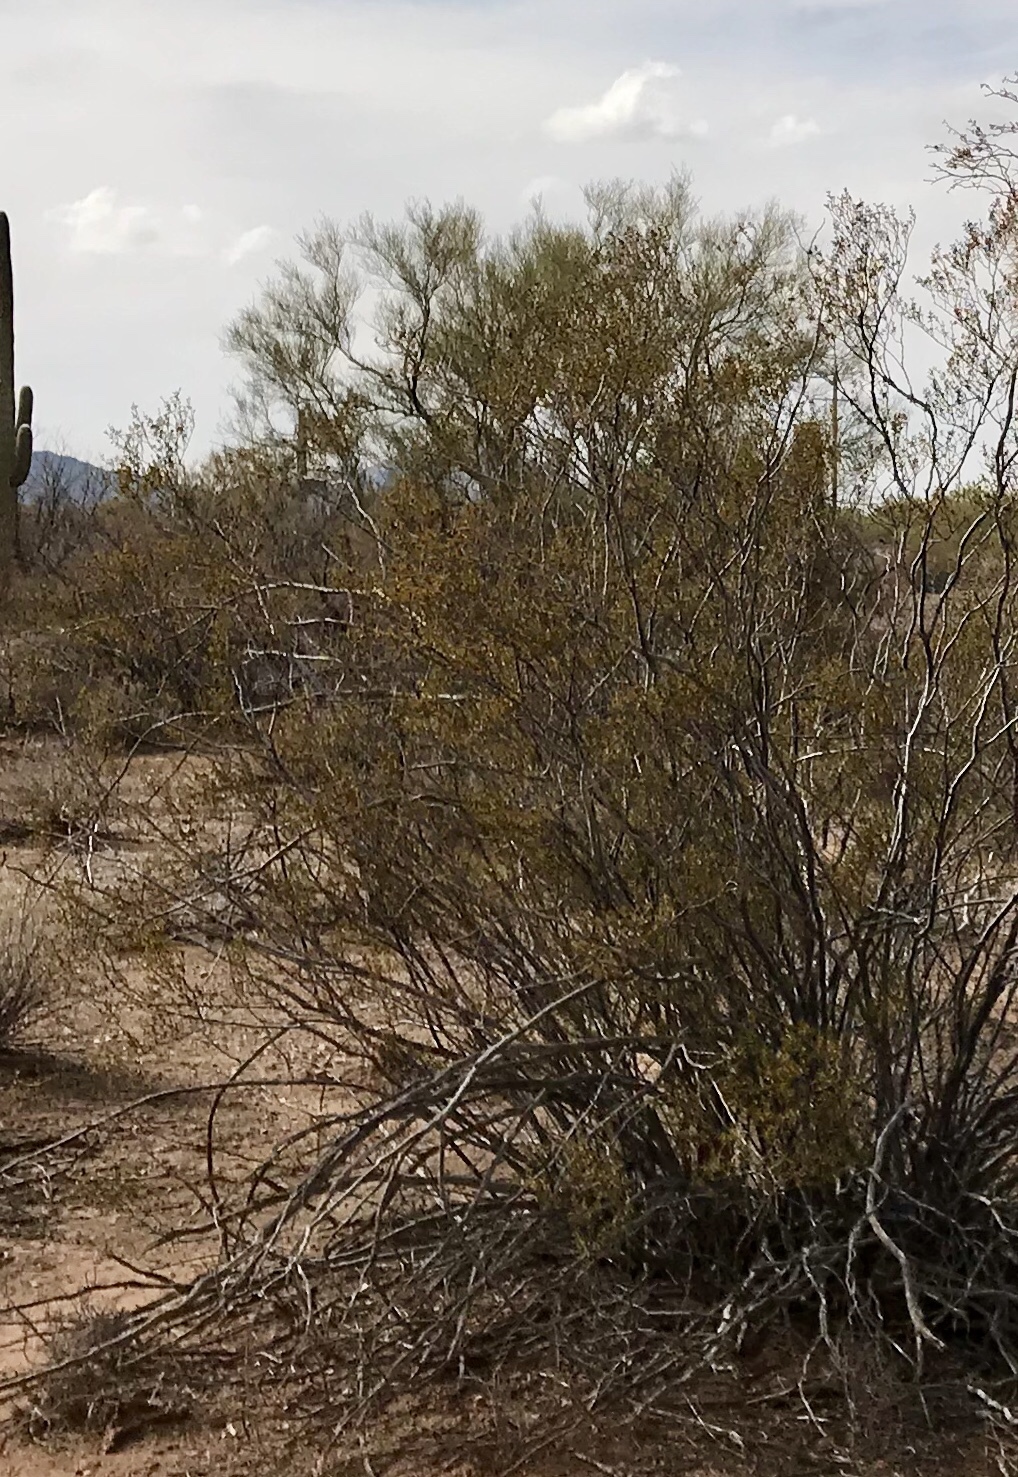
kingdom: Plantae
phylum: Tracheophyta
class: Magnoliopsida
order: Zygophyllales
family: Zygophyllaceae
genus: Larrea
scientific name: Larrea tridentata
